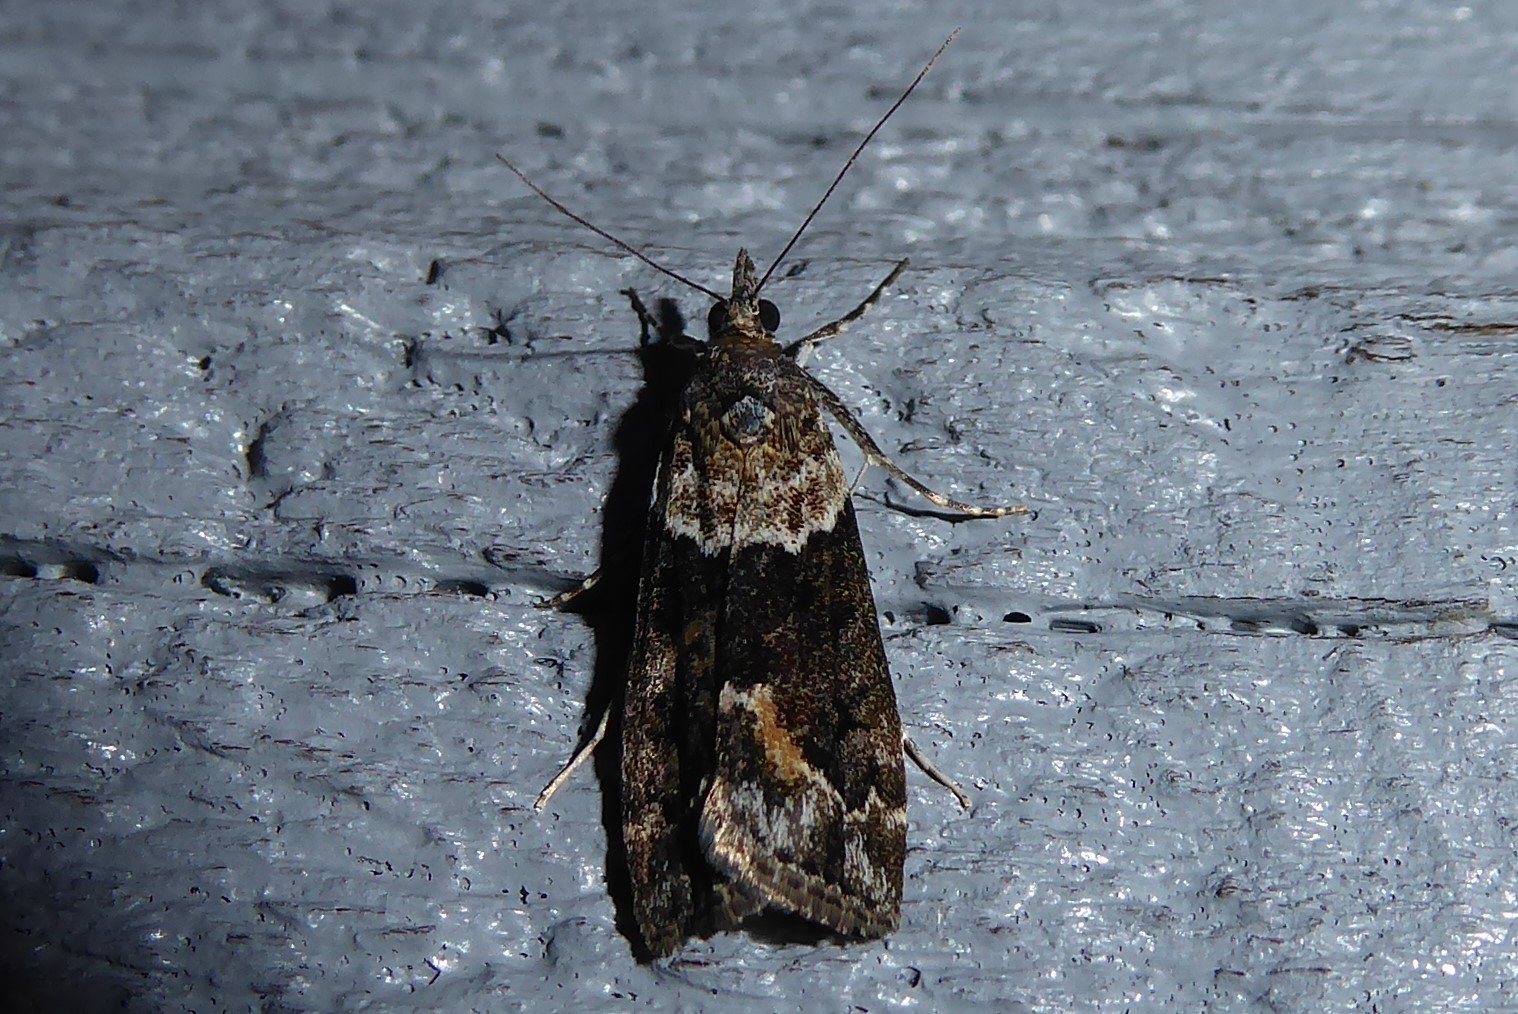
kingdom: Animalia
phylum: Arthropoda
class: Insecta
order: Lepidoptera
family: Crambidae
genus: Eudonia
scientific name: Eudonia submarginalis
